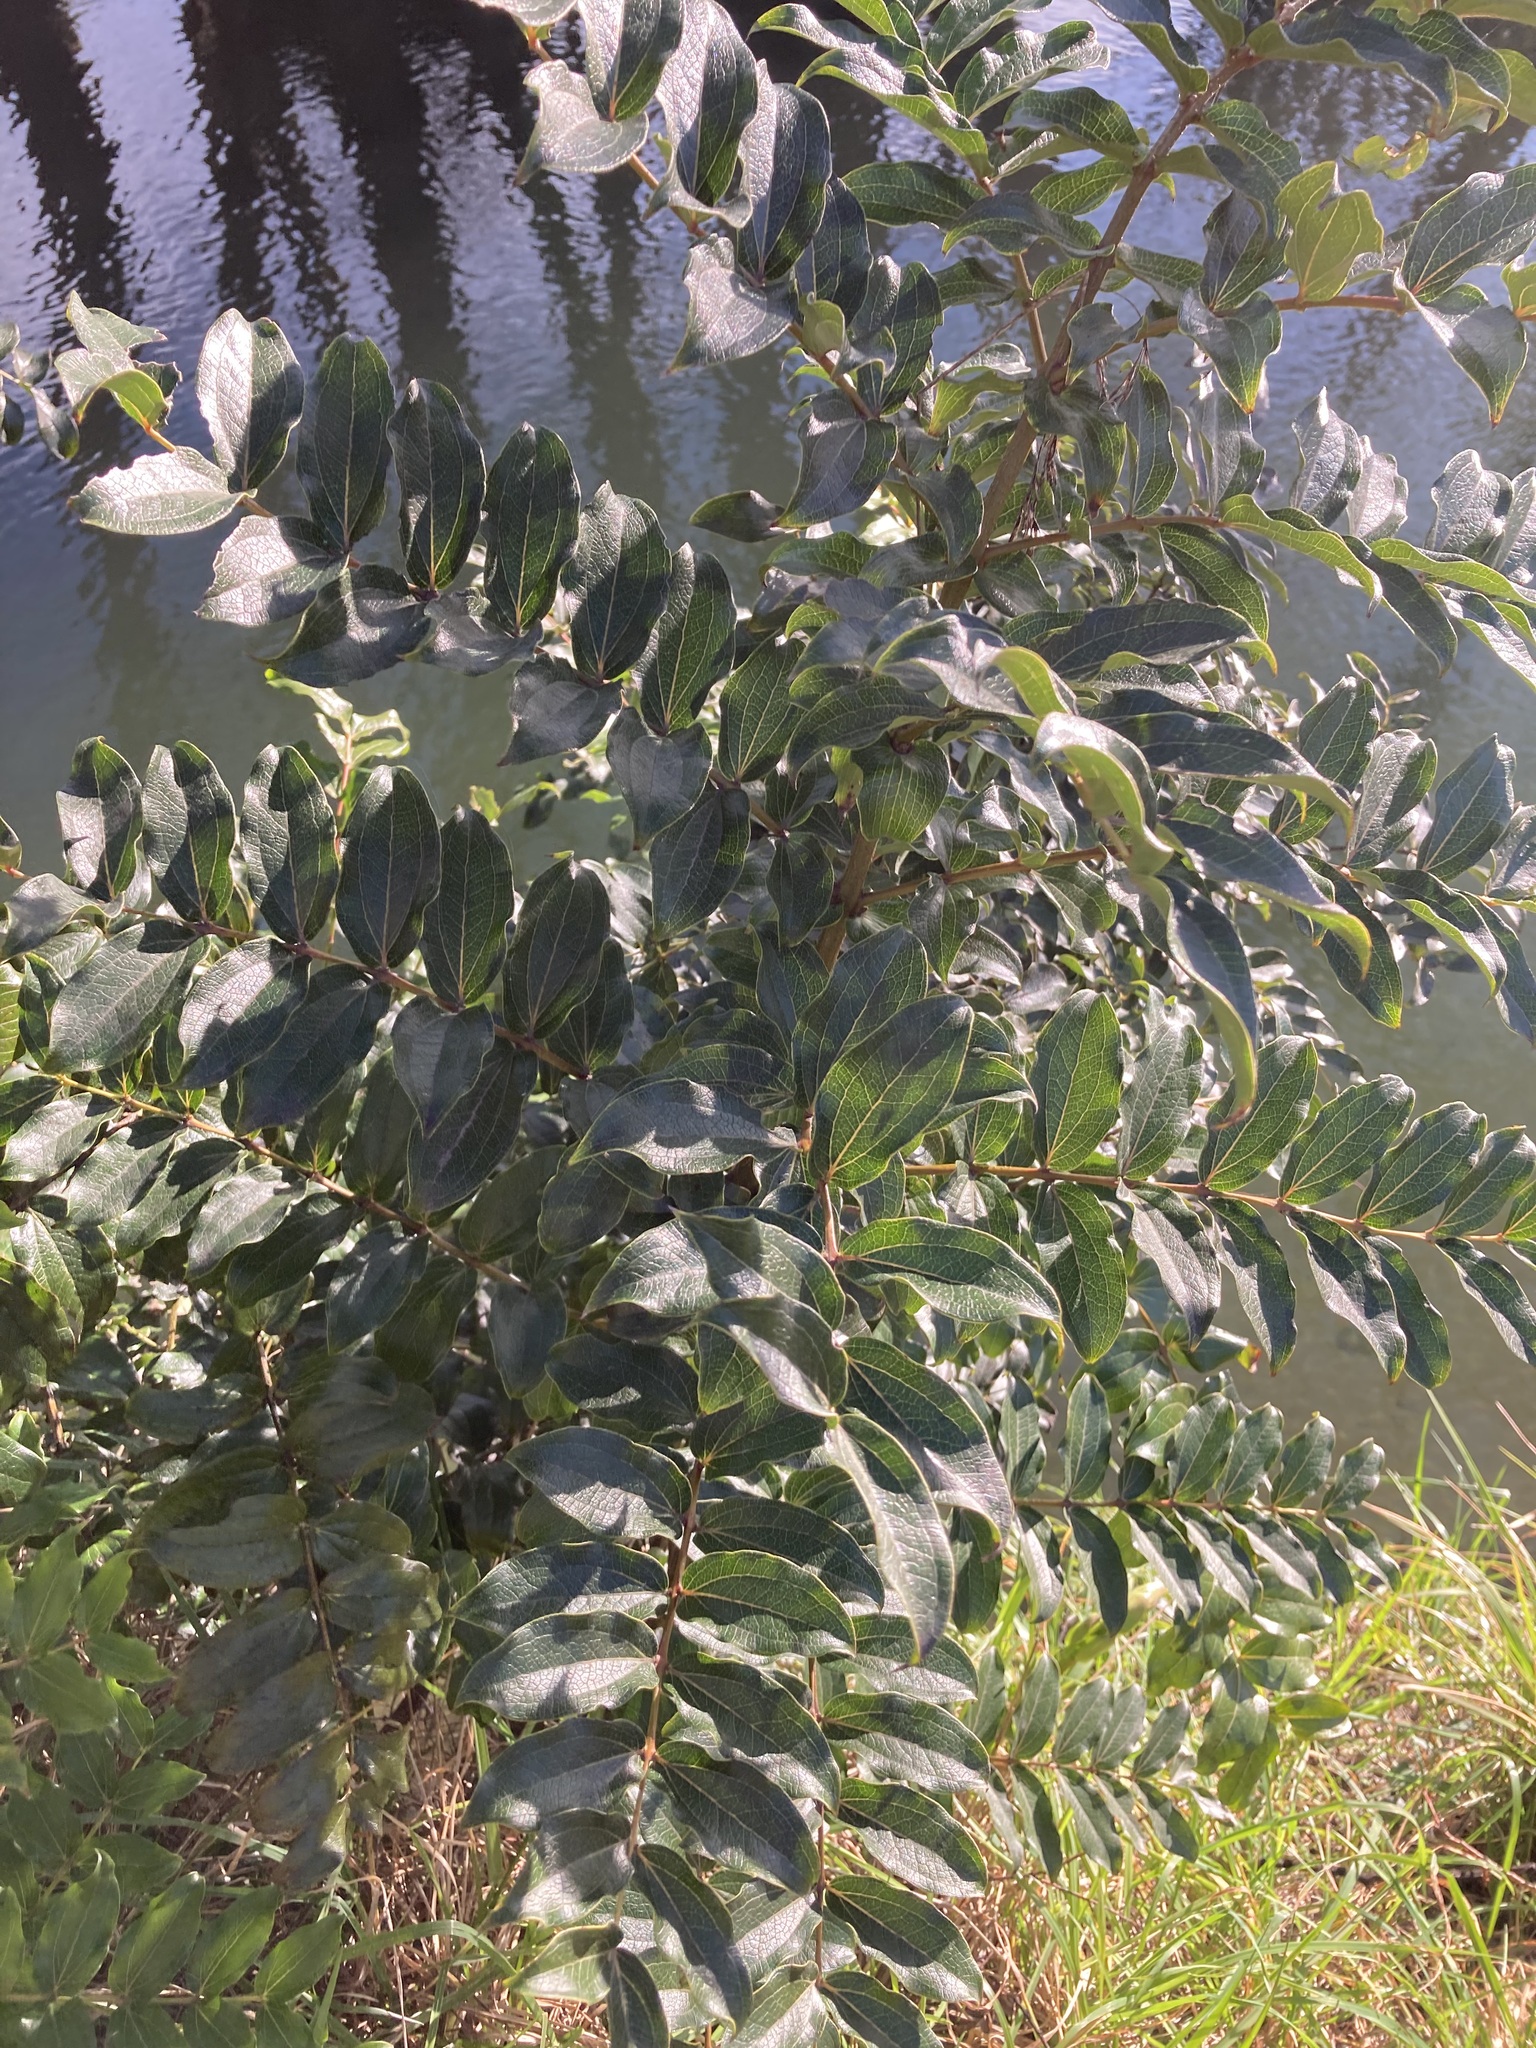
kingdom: Plantae
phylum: Tracheophyta
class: Magnoliopsida
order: Cucurbitales
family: Coriariaceae
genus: Coriaria
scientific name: Coriaria arborea
